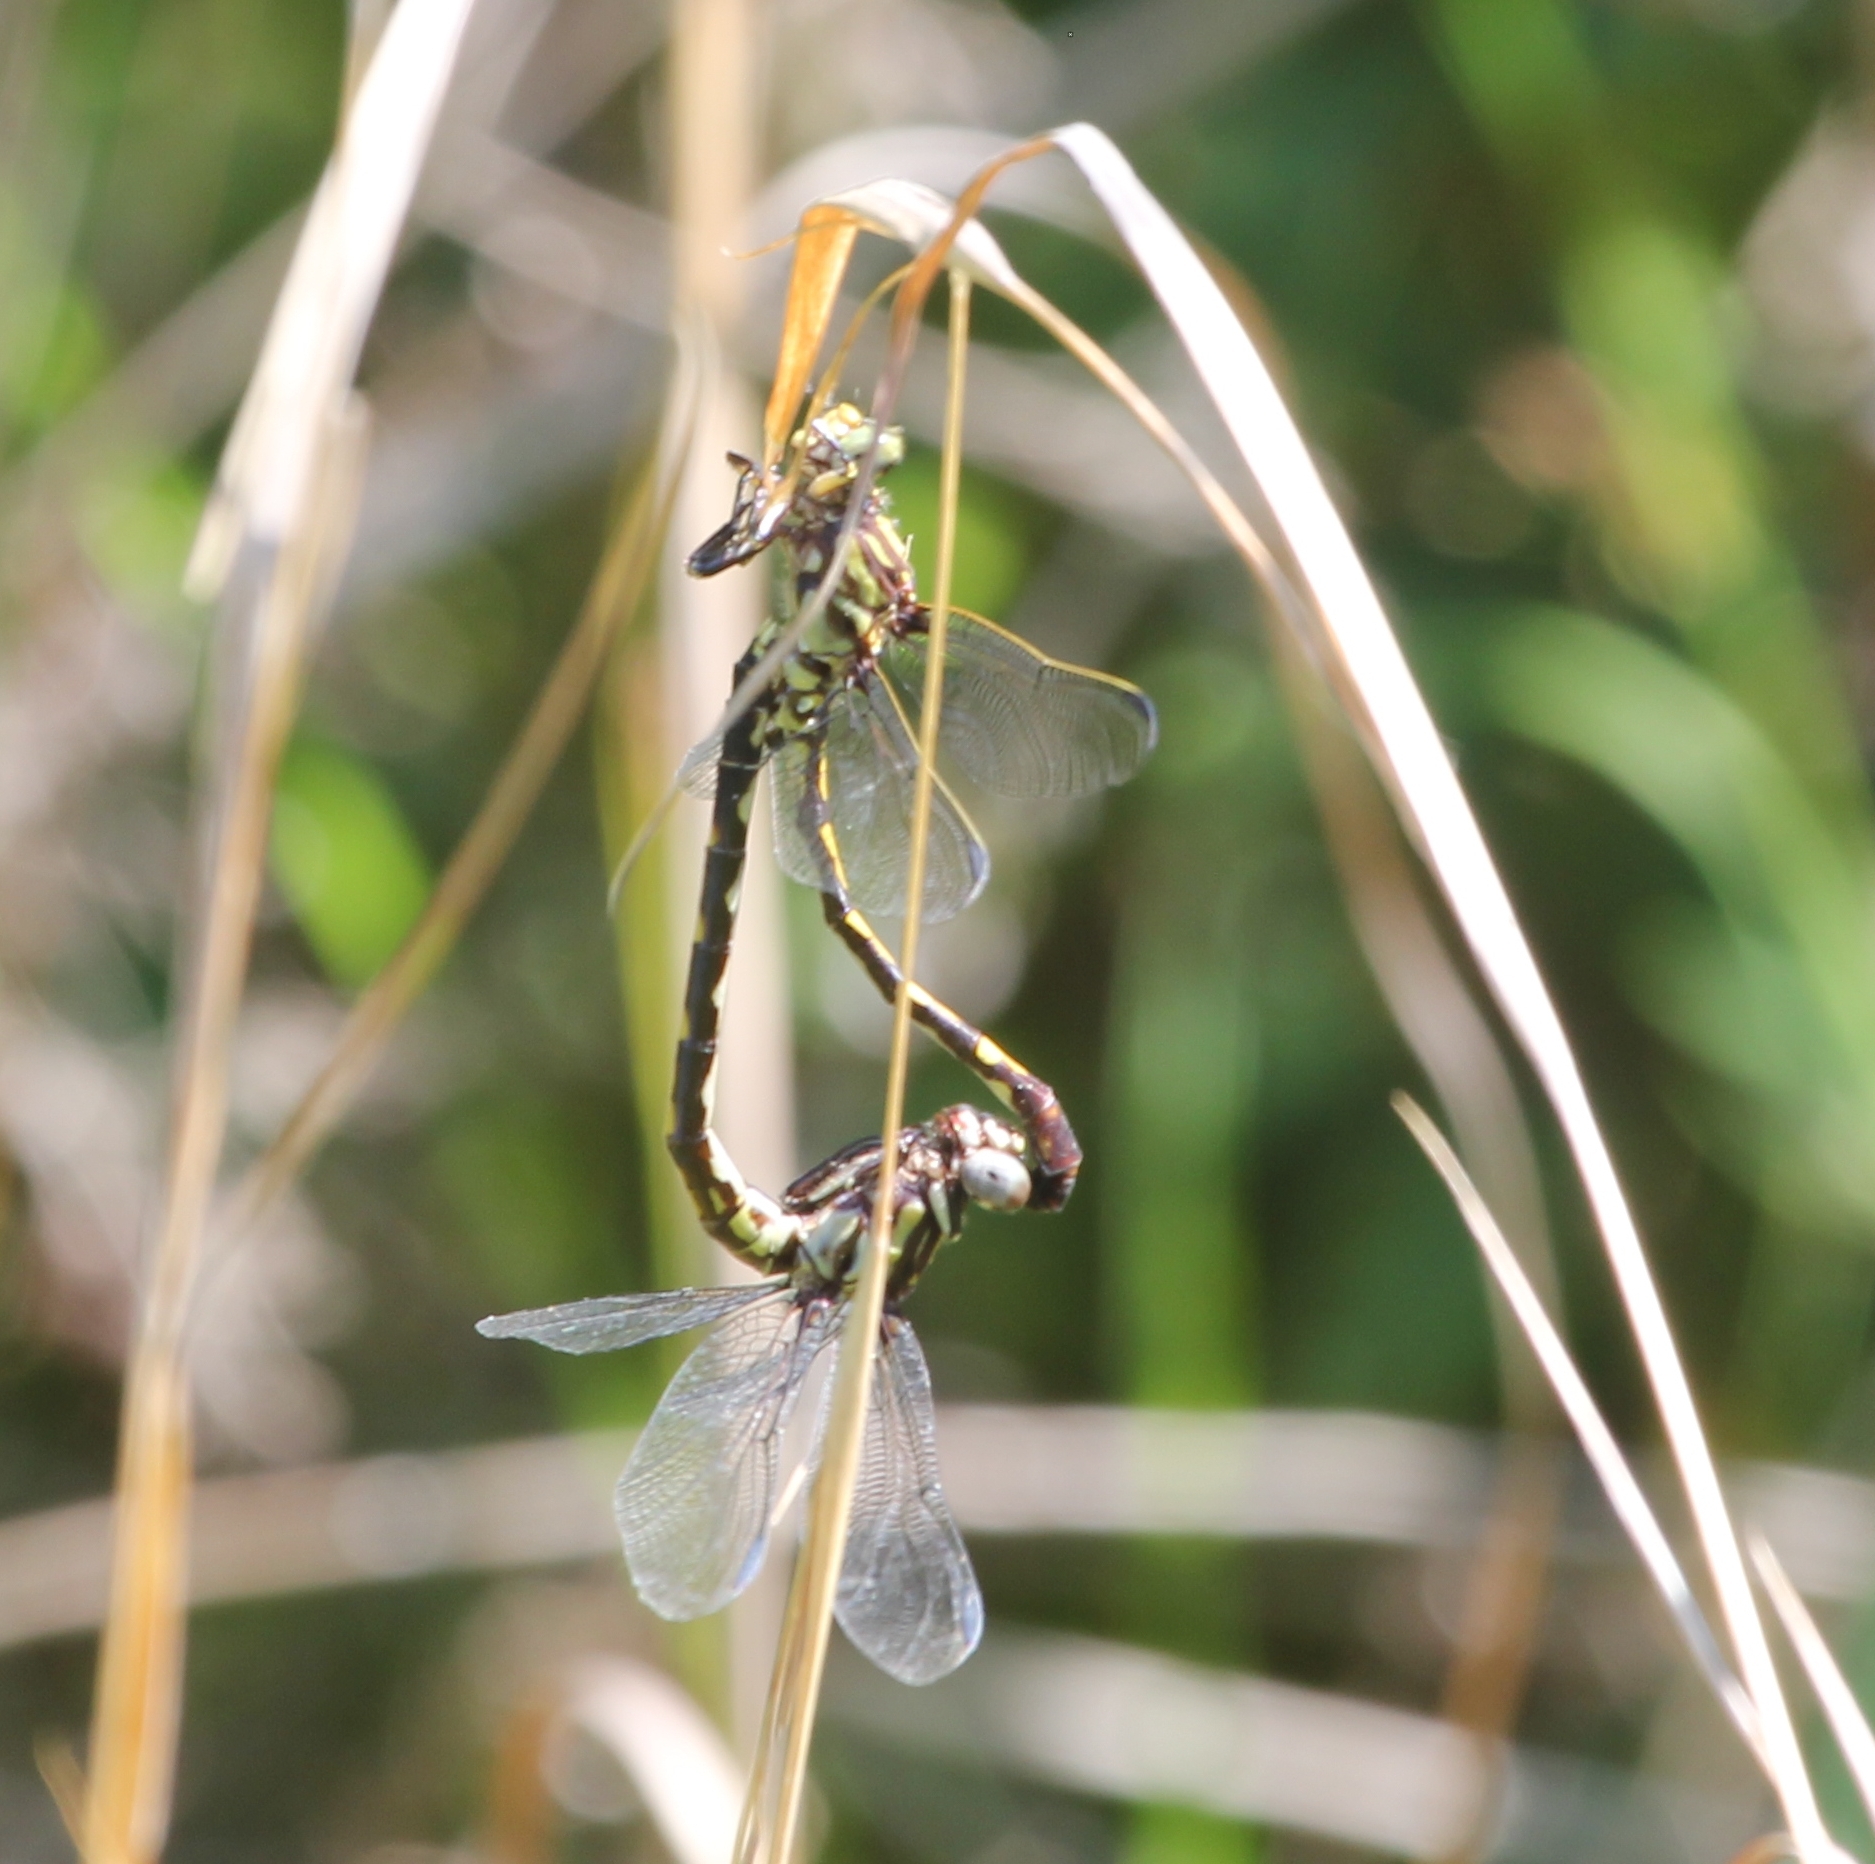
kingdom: Animalia
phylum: Arthropoda
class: Insecta
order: Odonata
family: Gomphidae
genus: Progomphus
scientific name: Progomphus obscurus
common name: Common sanddragon
